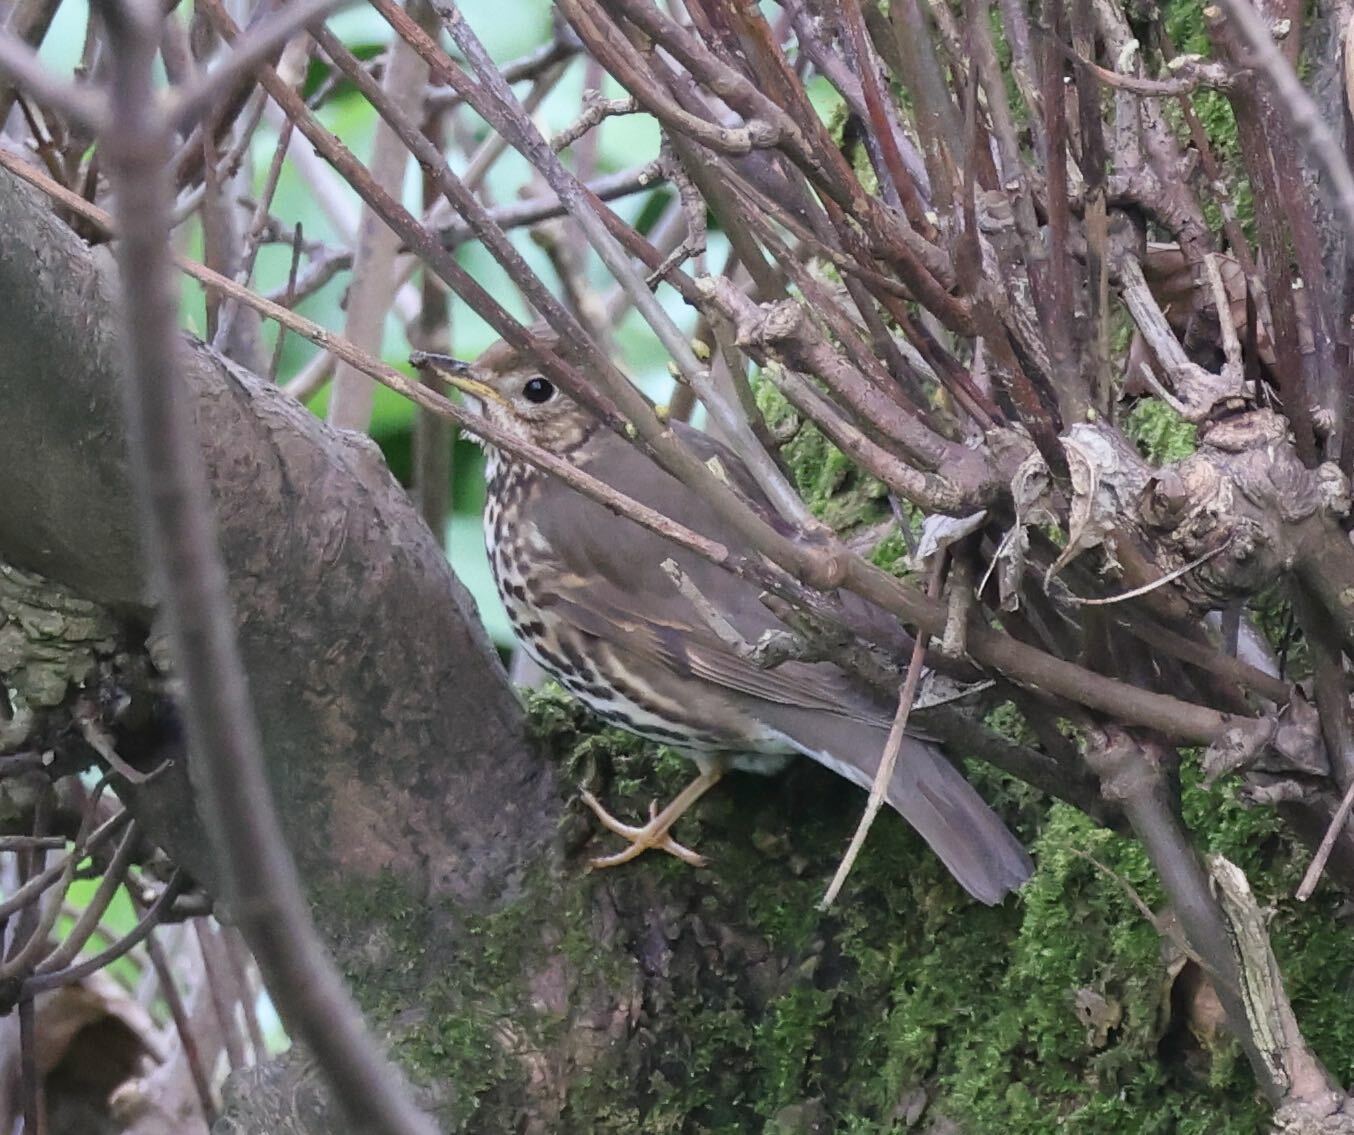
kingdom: Animalia
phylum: Chordata
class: Aves
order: Passeriformes
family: Turdidae
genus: Turdus
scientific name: Turdus philomelos
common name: Song thrush
